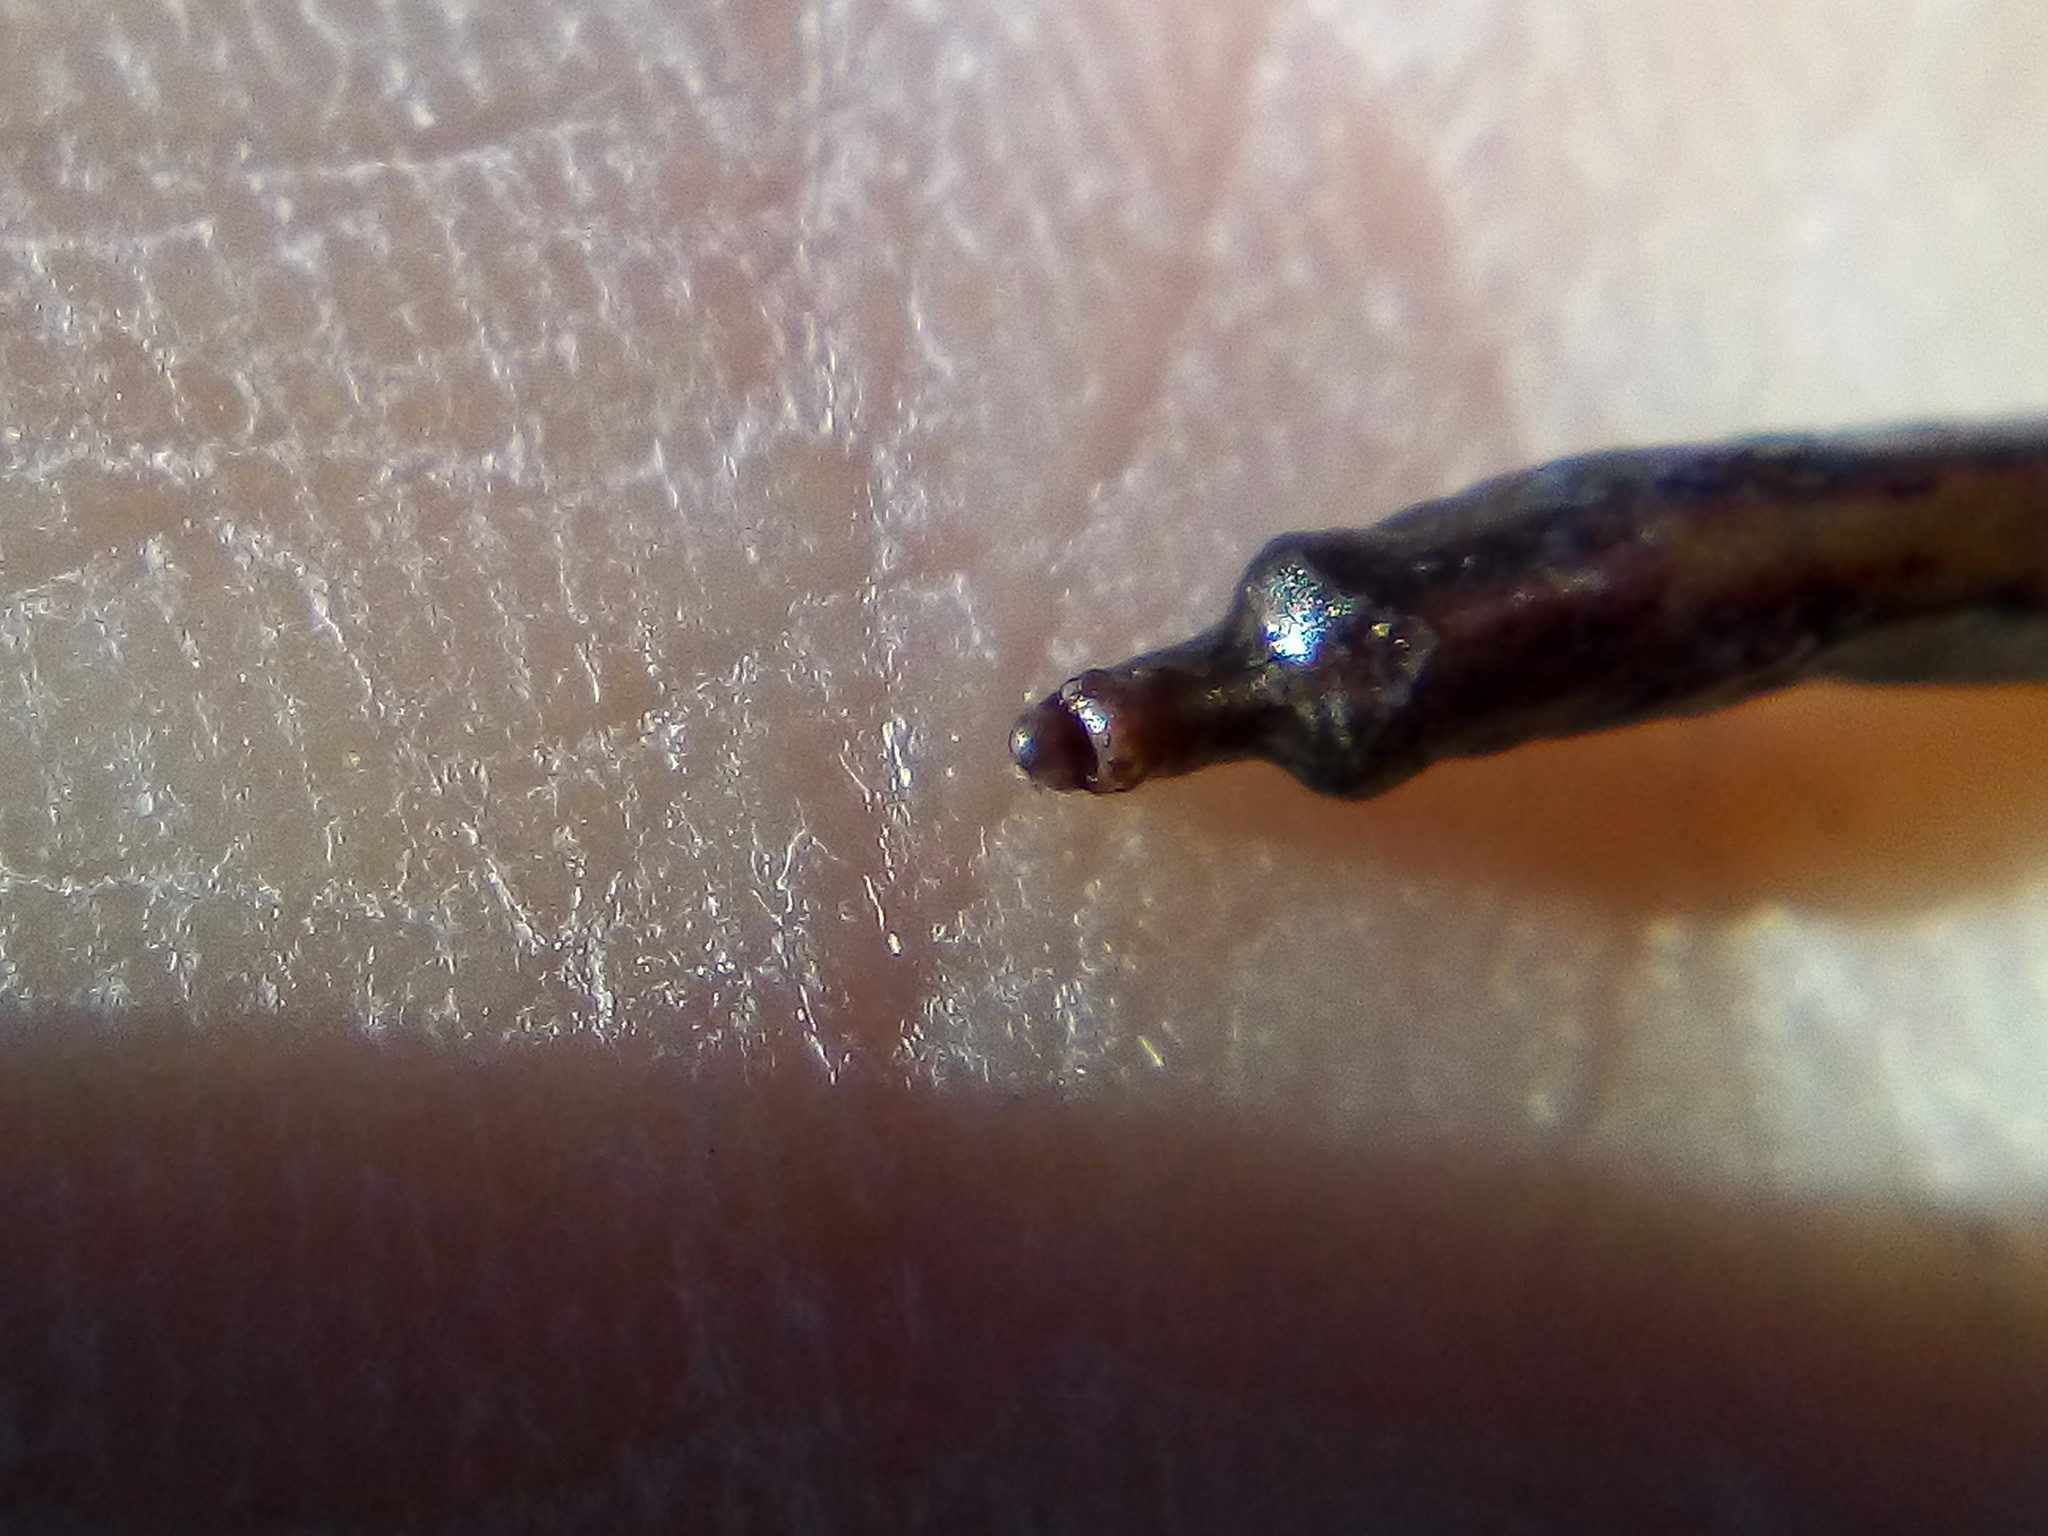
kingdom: Animalia
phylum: Chordata
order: Syngnathiformes
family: Syngnathidae
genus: Lissocampus
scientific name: Lissocampus filum
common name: Shortsnout pipefish
